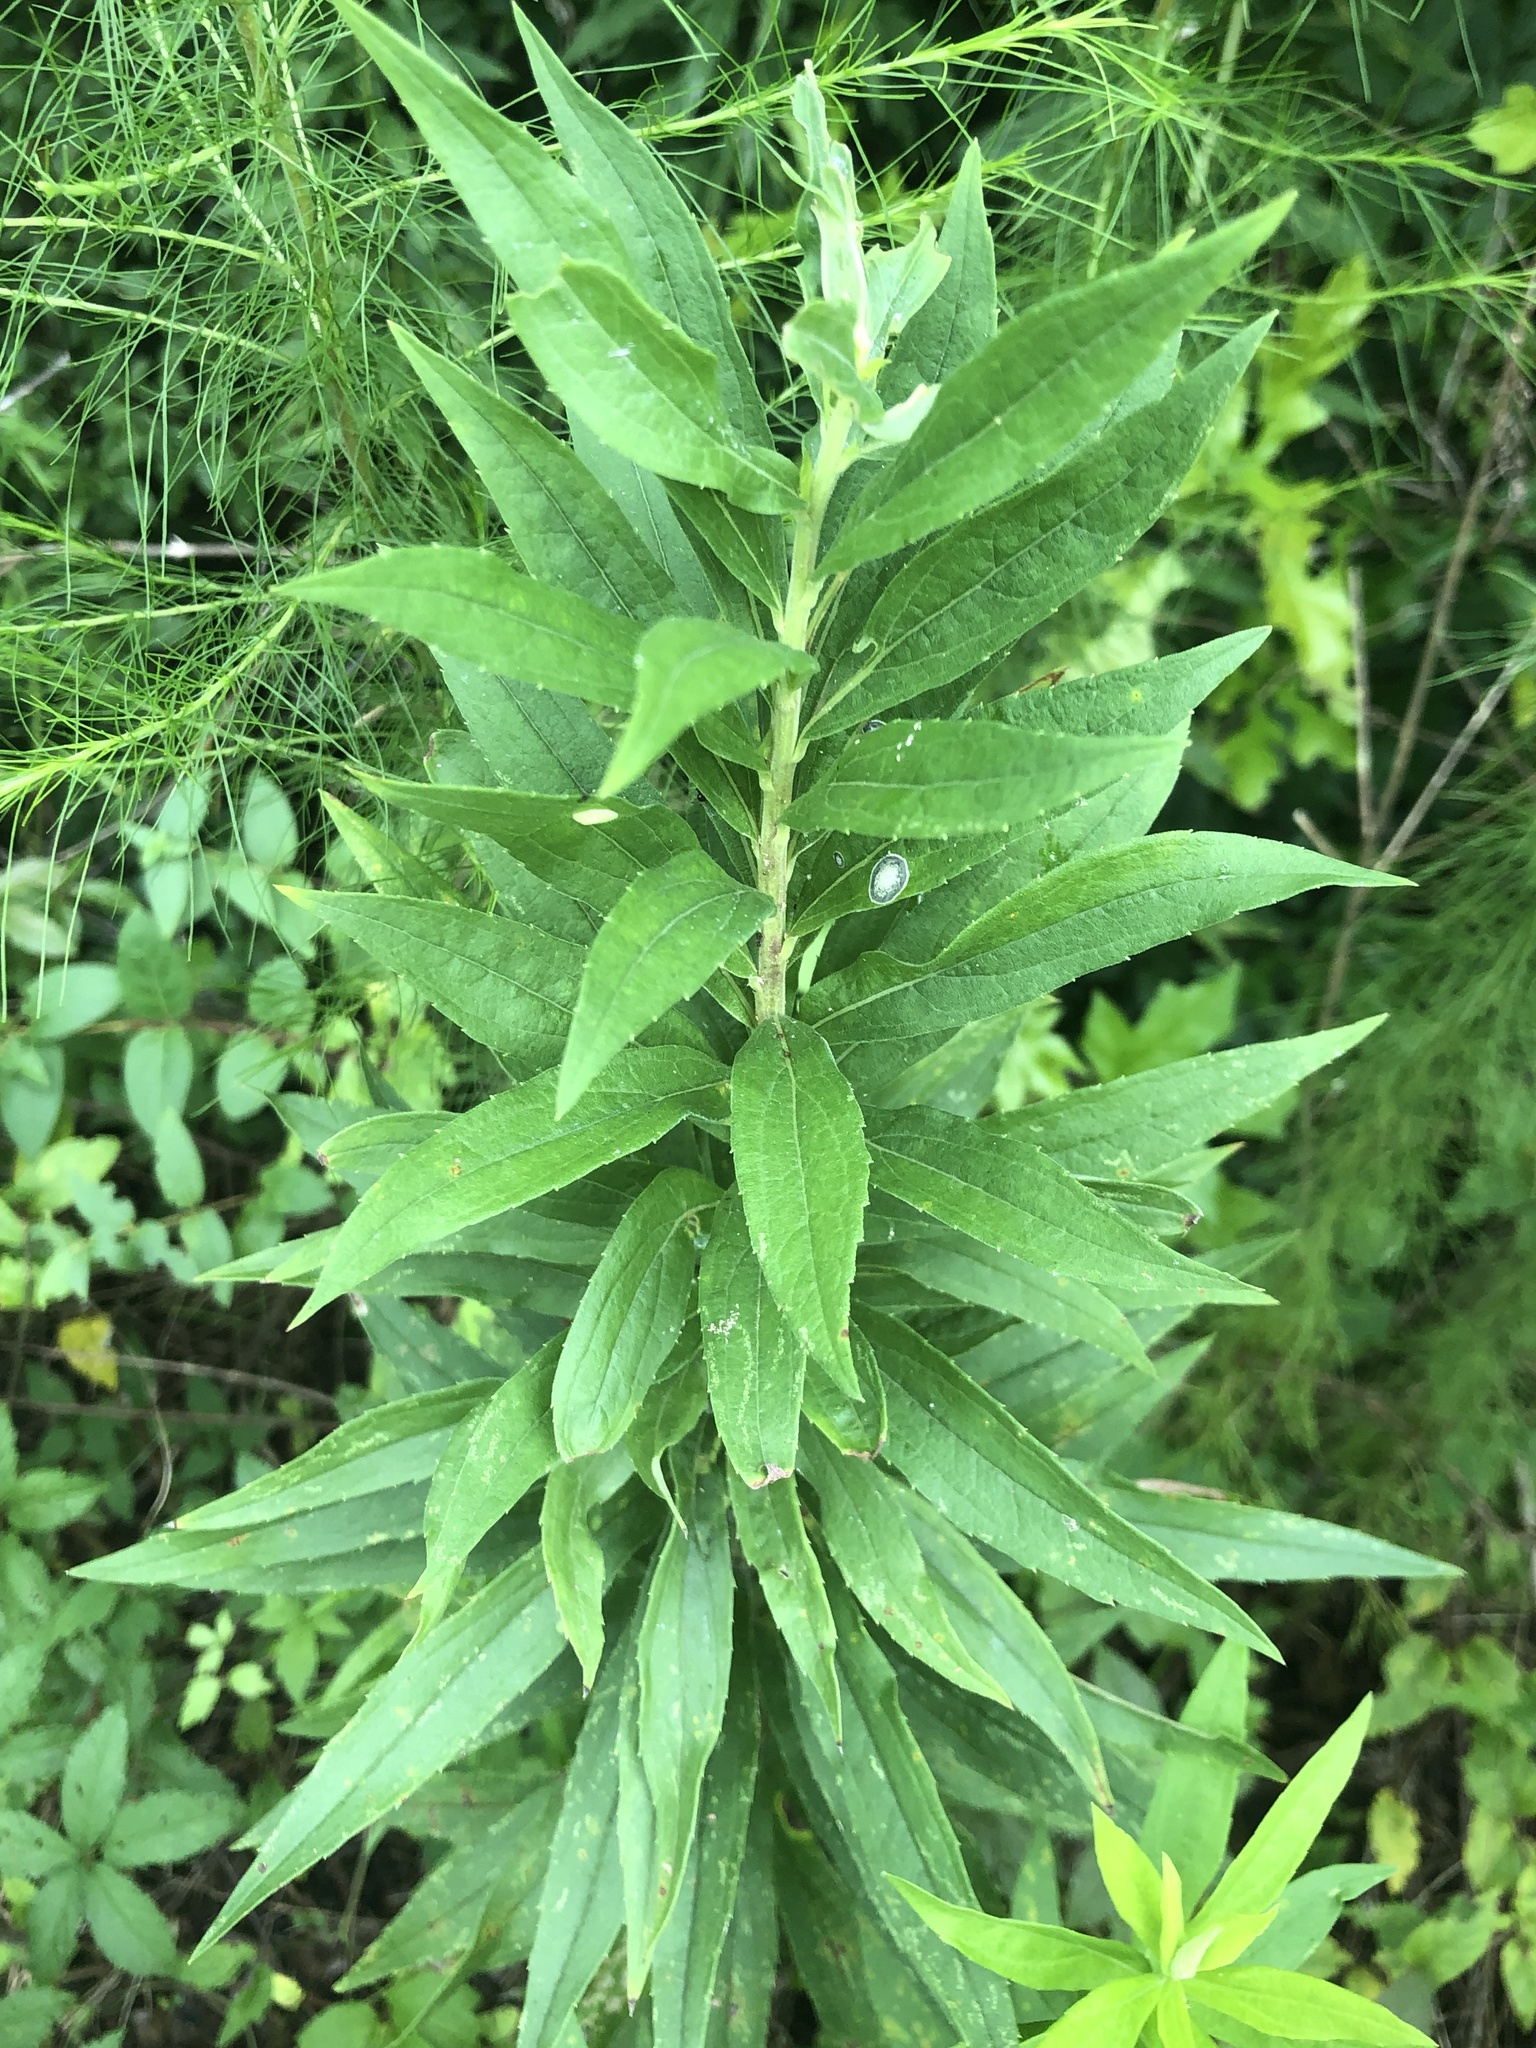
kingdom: Animalia
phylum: Arthropoda
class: Insecta
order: Diptera
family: Cecidomyiidae
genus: Asteromyia
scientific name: Asteromyia carbonifera
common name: Carbonifera goldenrod gall midge
